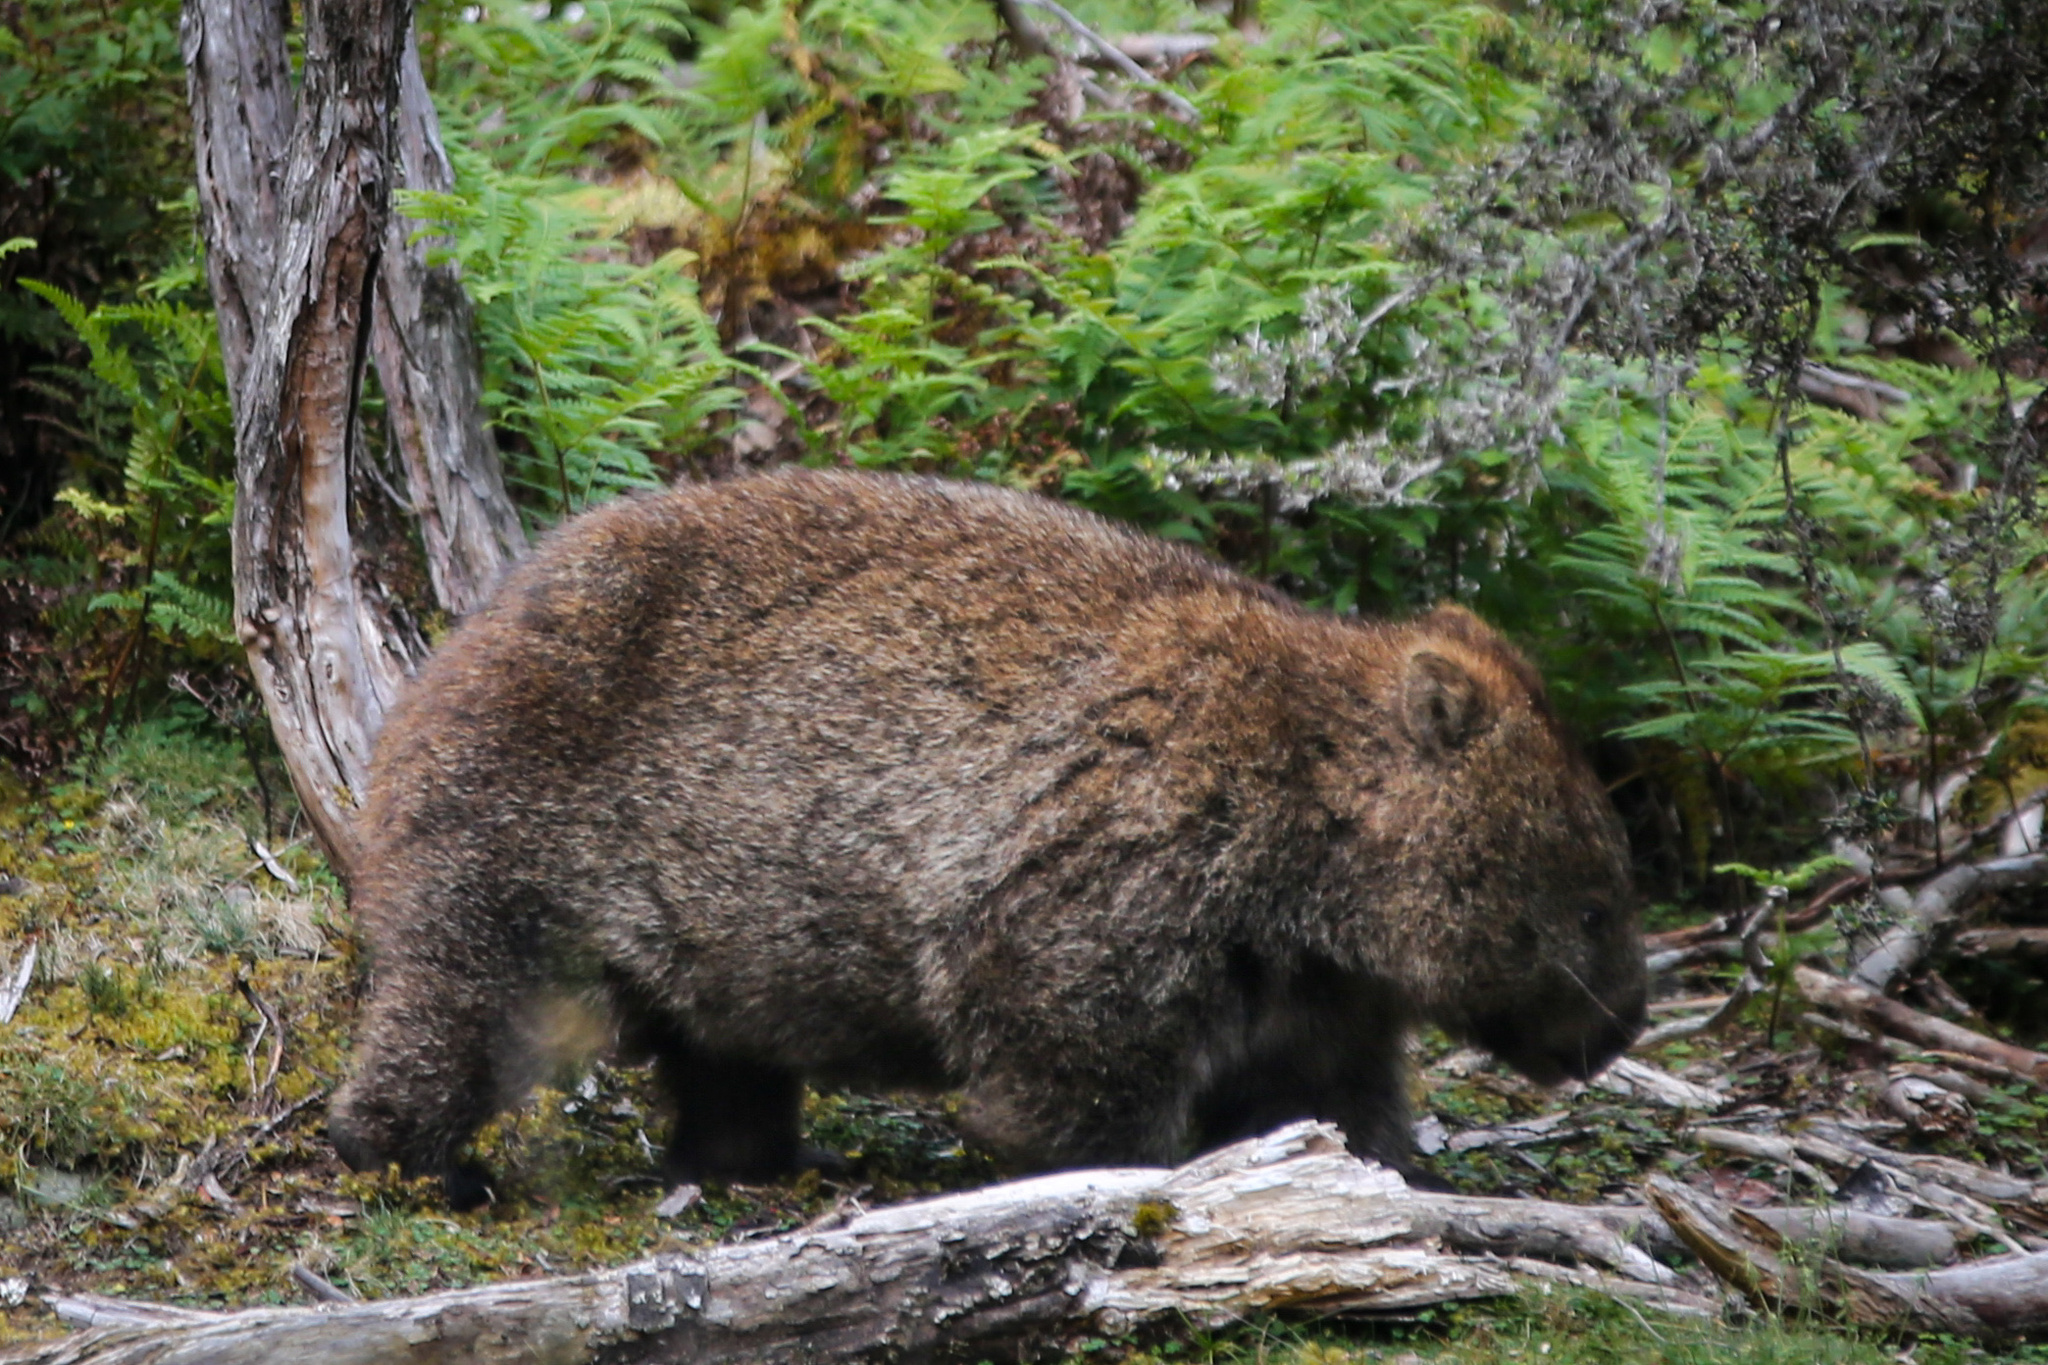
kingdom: Animalia
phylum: Chordata
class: Mammalia
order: Diprotodontia
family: Vombatidae
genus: Vombatus
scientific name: Vombatus ursinus
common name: Common wombat
